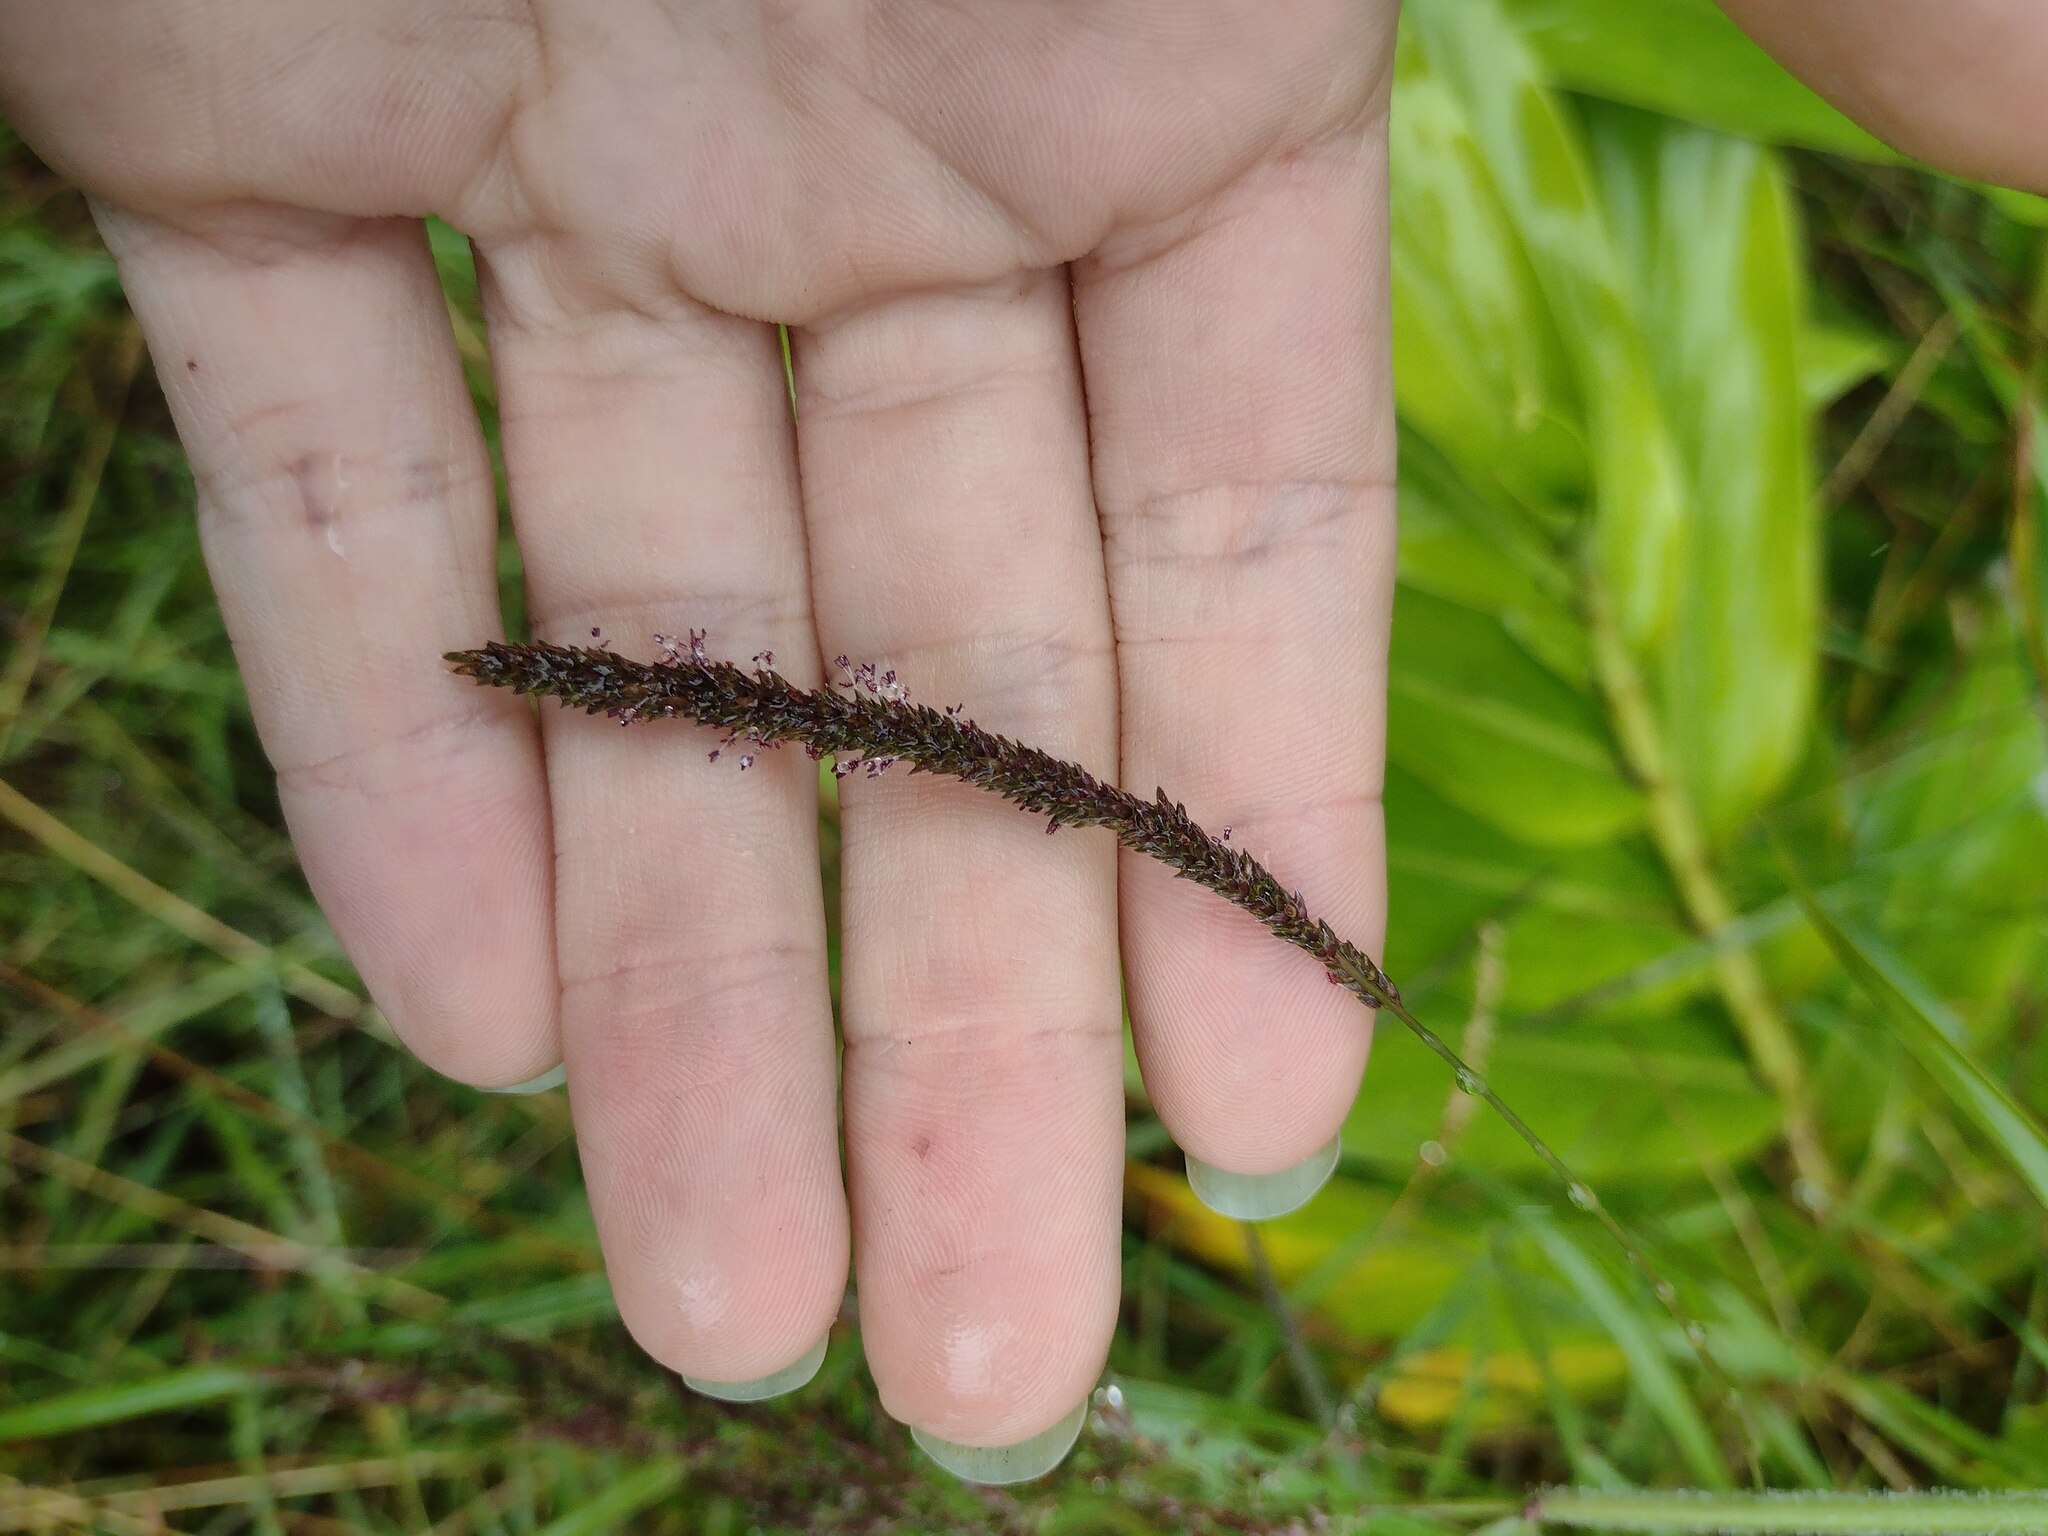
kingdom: Plantae
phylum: Tracheophyta
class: Liliopsida
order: Poales
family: Poaceae
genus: Sacciolepis
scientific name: Sacciolepis indica
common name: Glenwoodgrass
